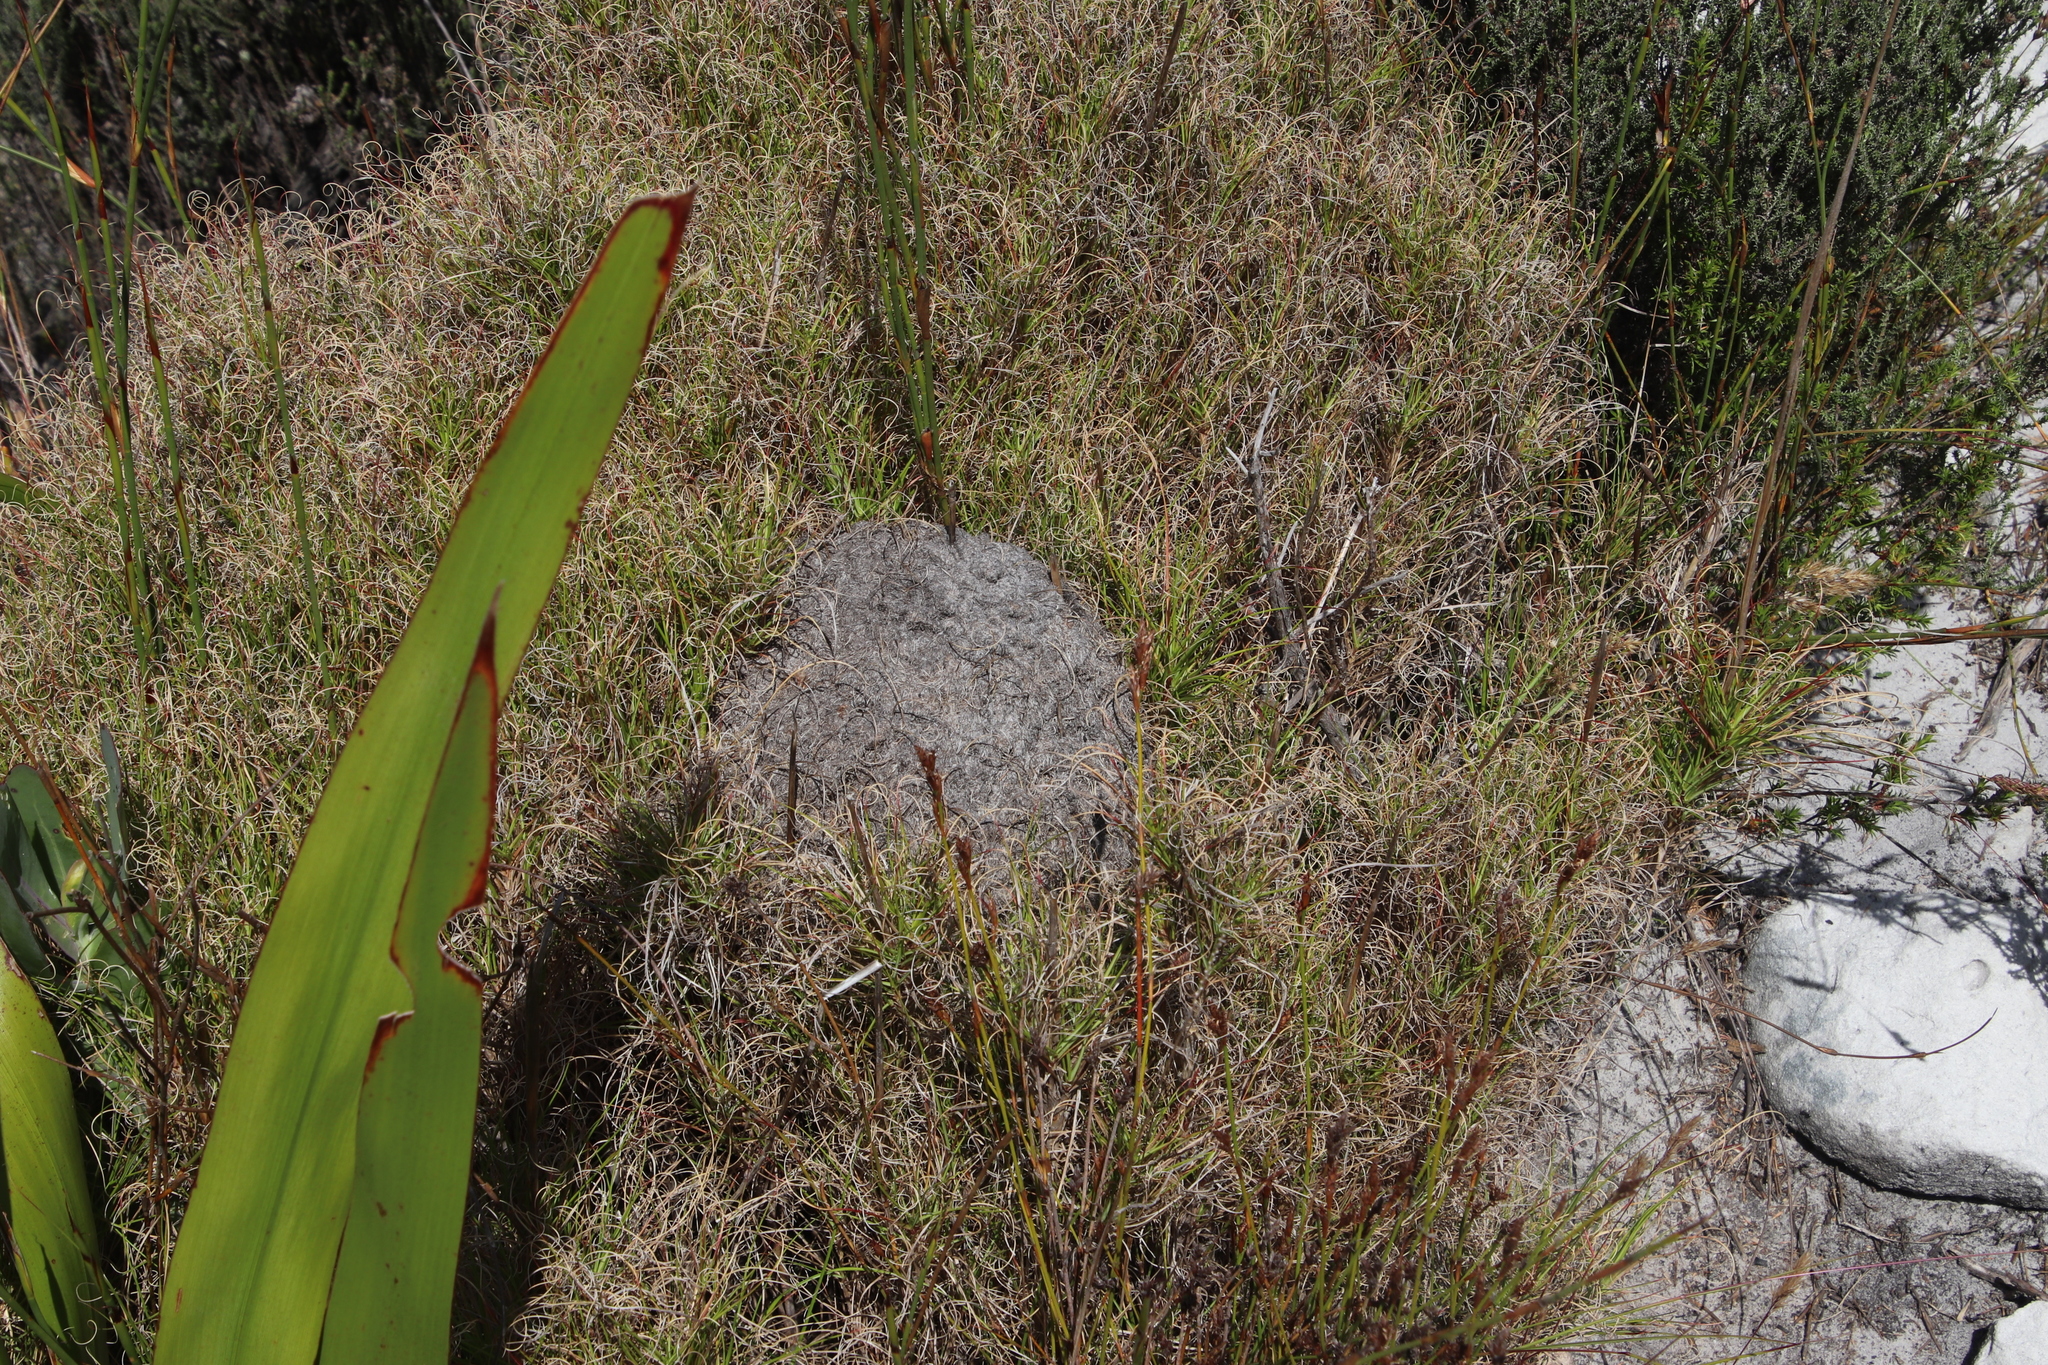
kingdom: Animalia
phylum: Arthropoda
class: Insecta
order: Hymenoptera
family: Formicidae
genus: Crematogaster
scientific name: Crematogaster peringueyi
